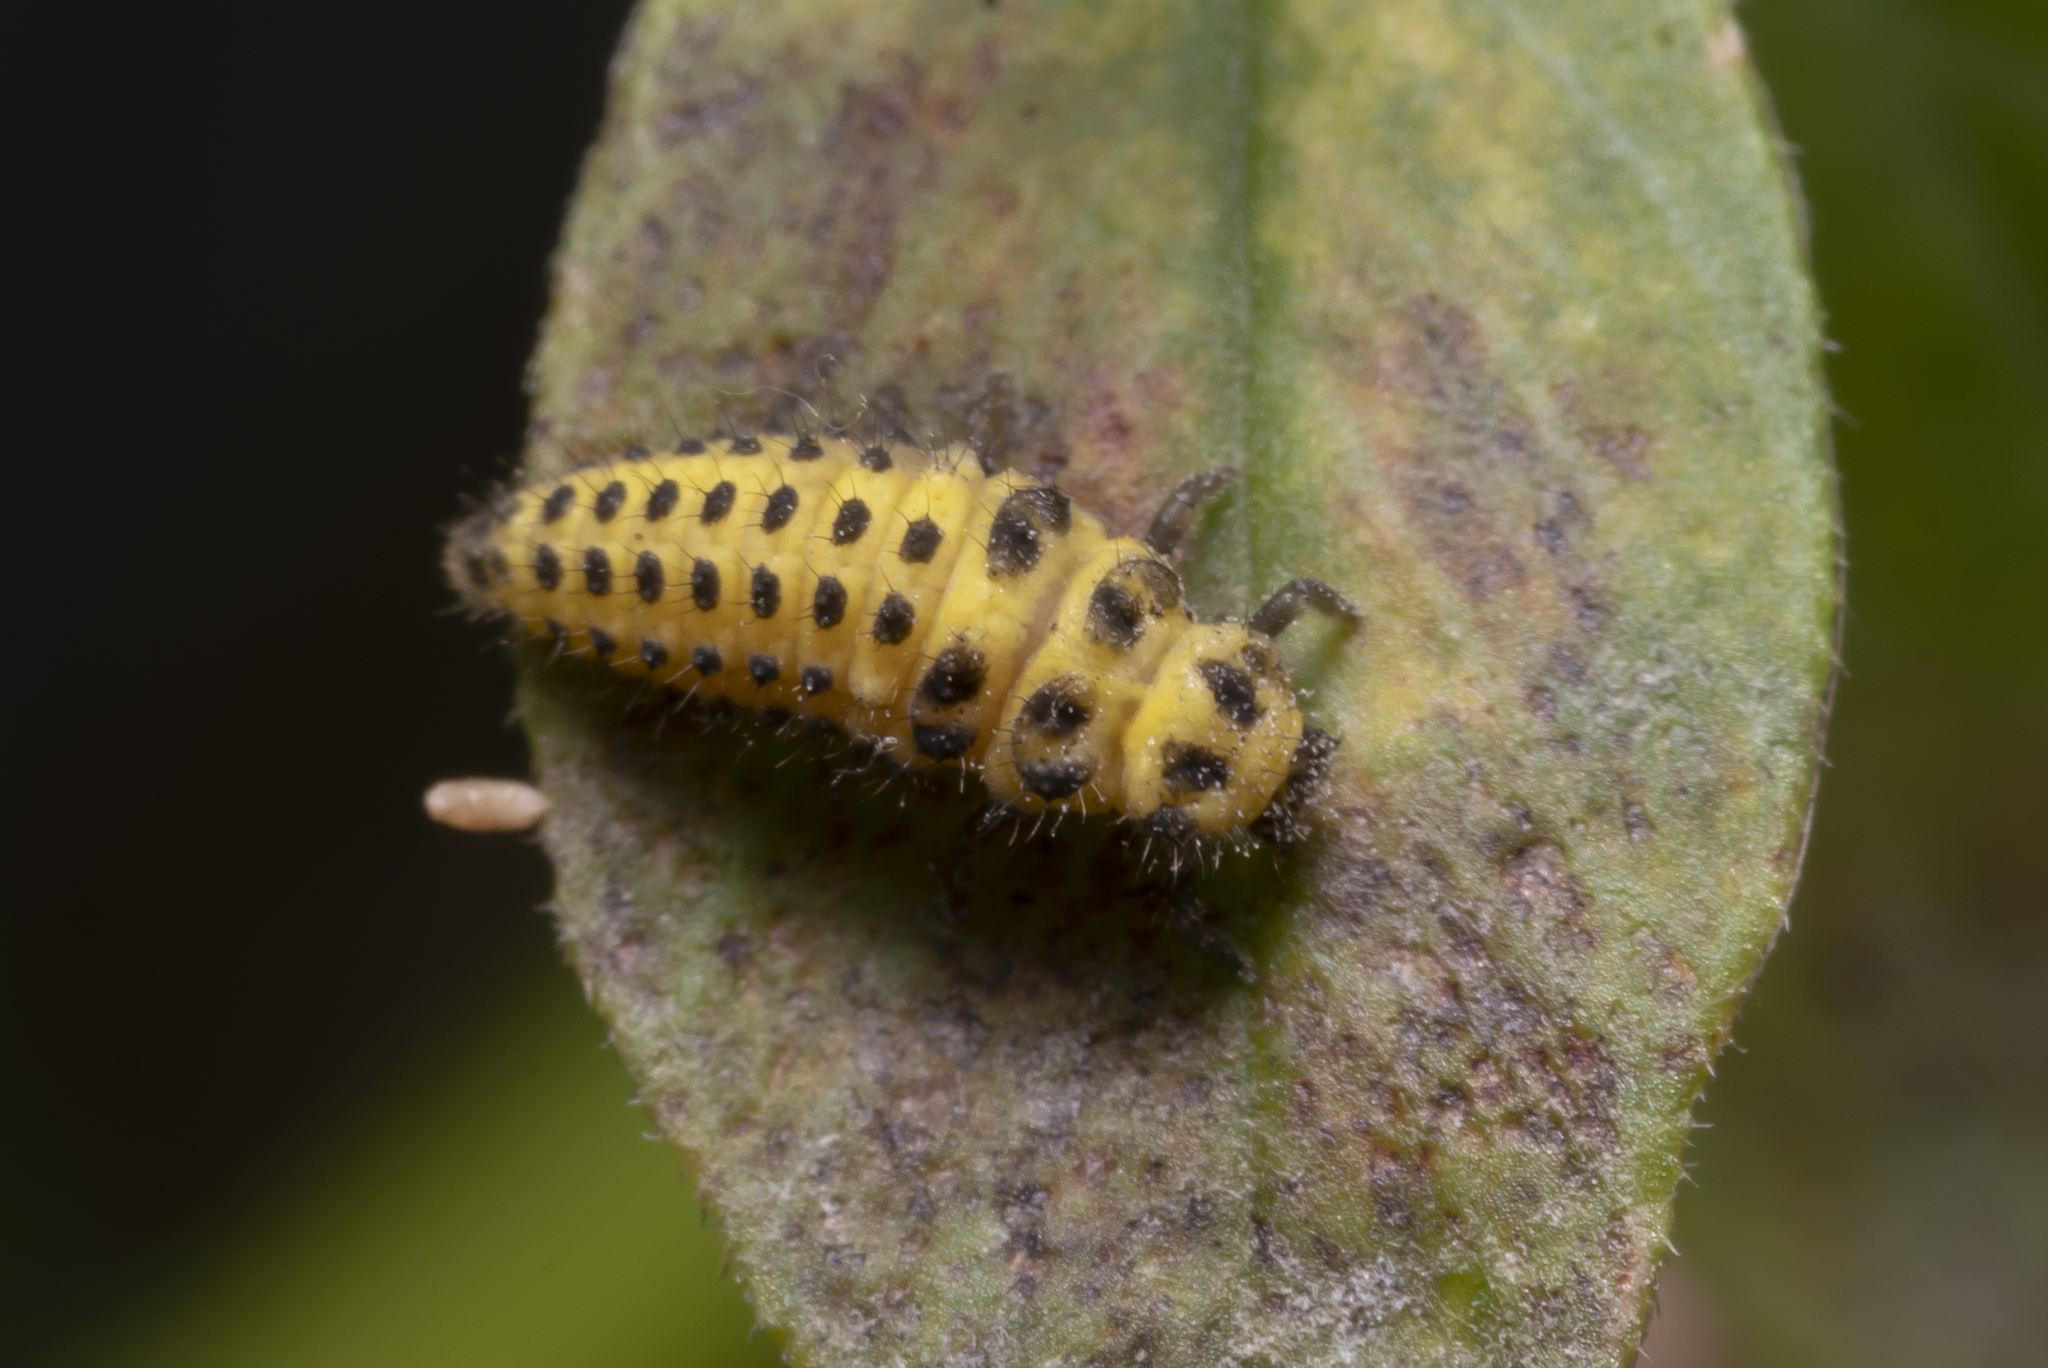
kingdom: Animalia
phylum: Arthropoda
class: Insecta
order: Coleoptera
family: Coccinellidae
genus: Psyllobora
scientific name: Psyllobora vigintiduopunctata
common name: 22-spot ladybird
